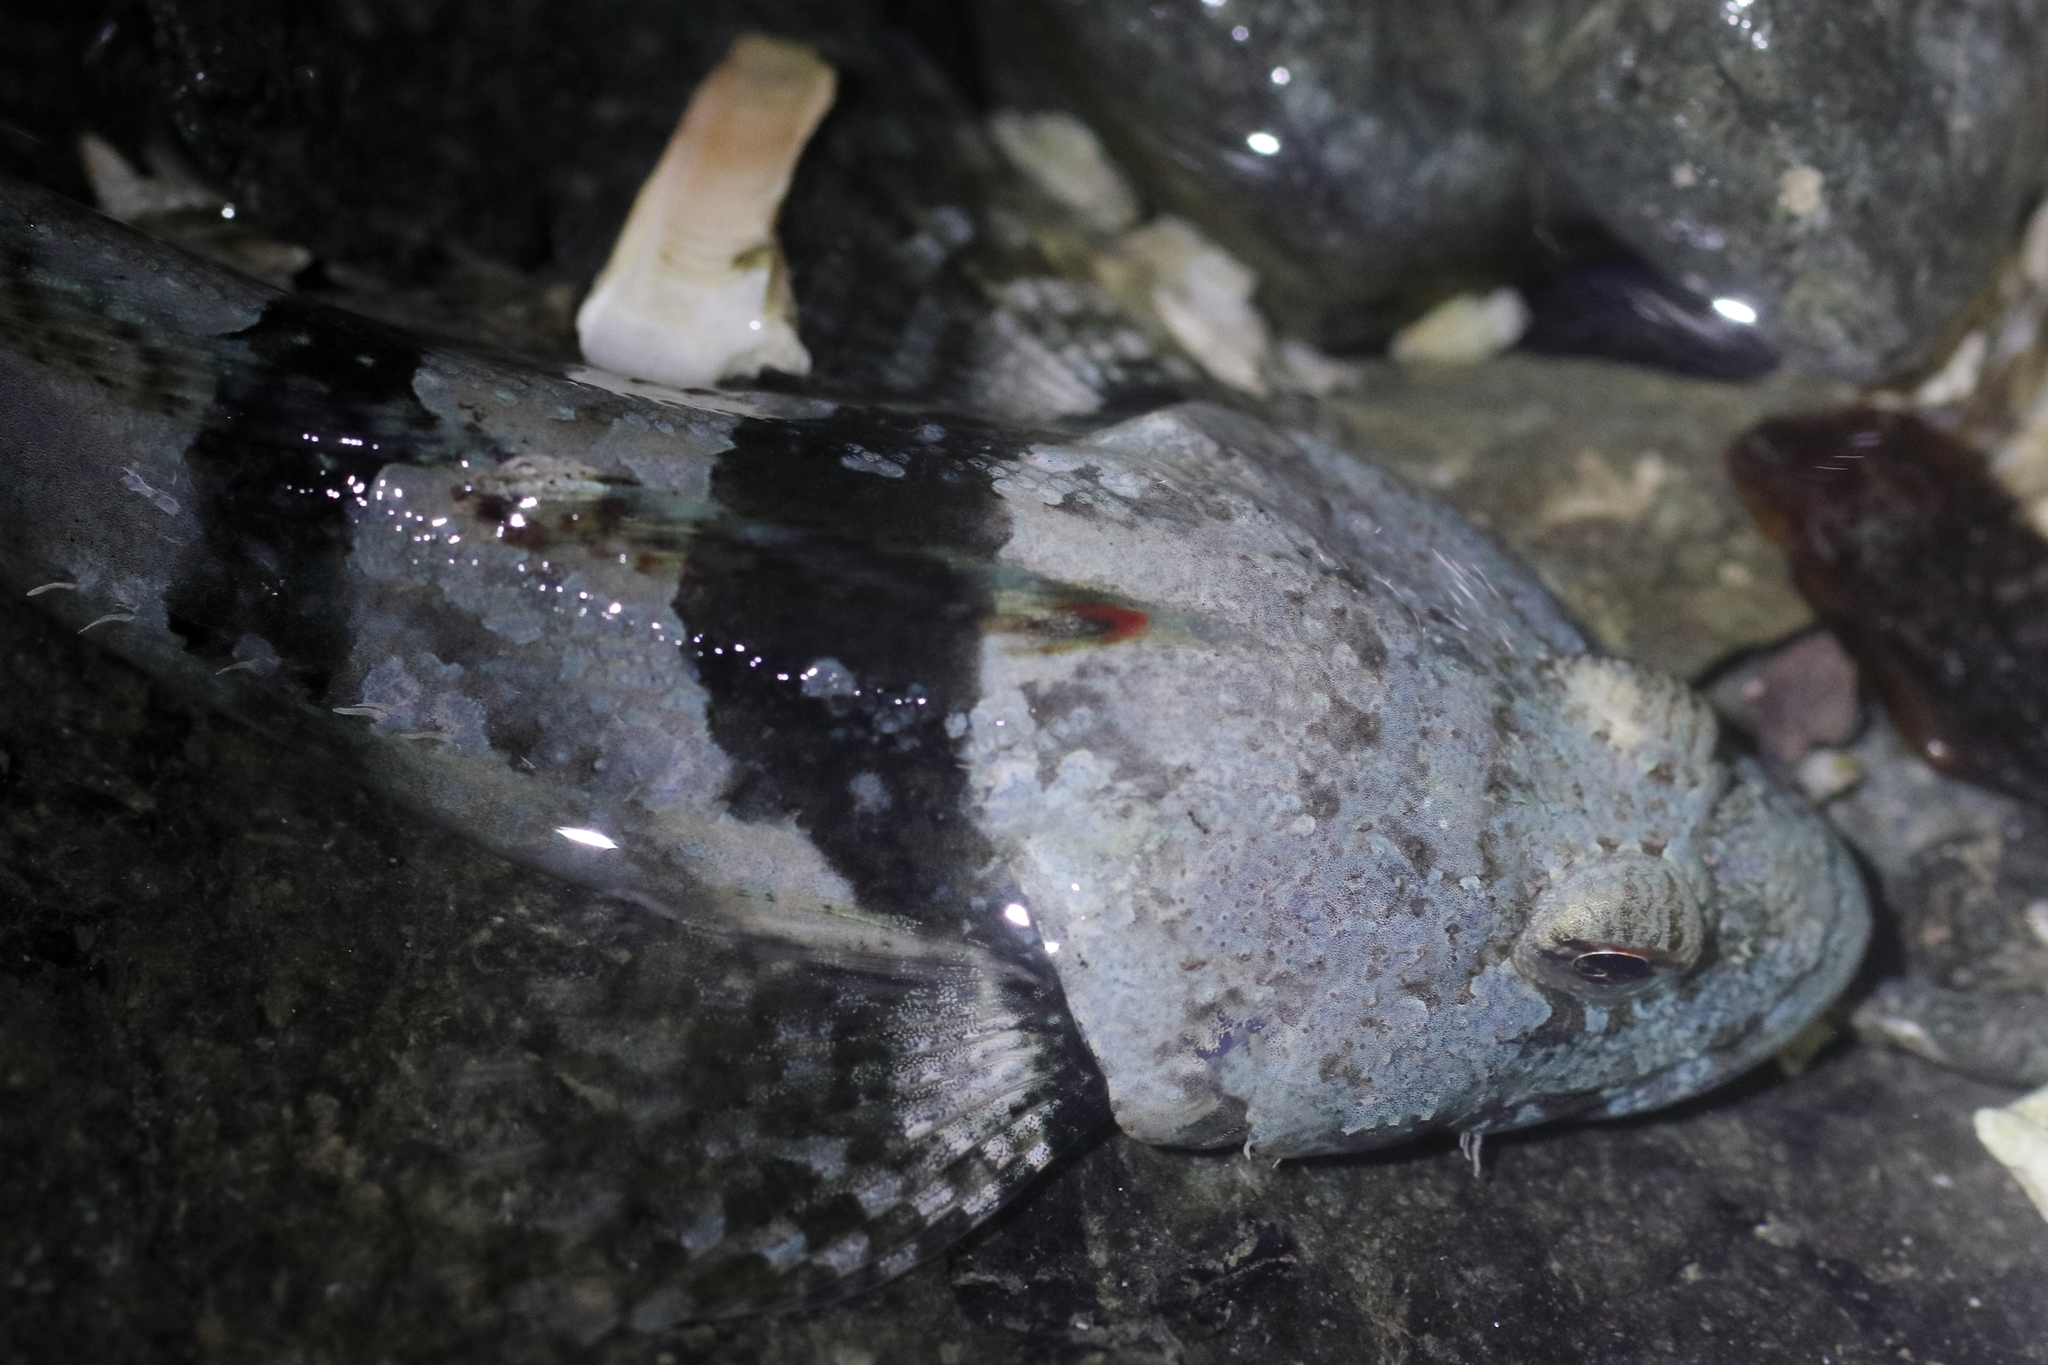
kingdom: Animalia
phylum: Chordata
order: Scorpaeniformes
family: Cottidae
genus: Artedius
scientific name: Artedius lateralis
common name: Smooth-head sculpin
